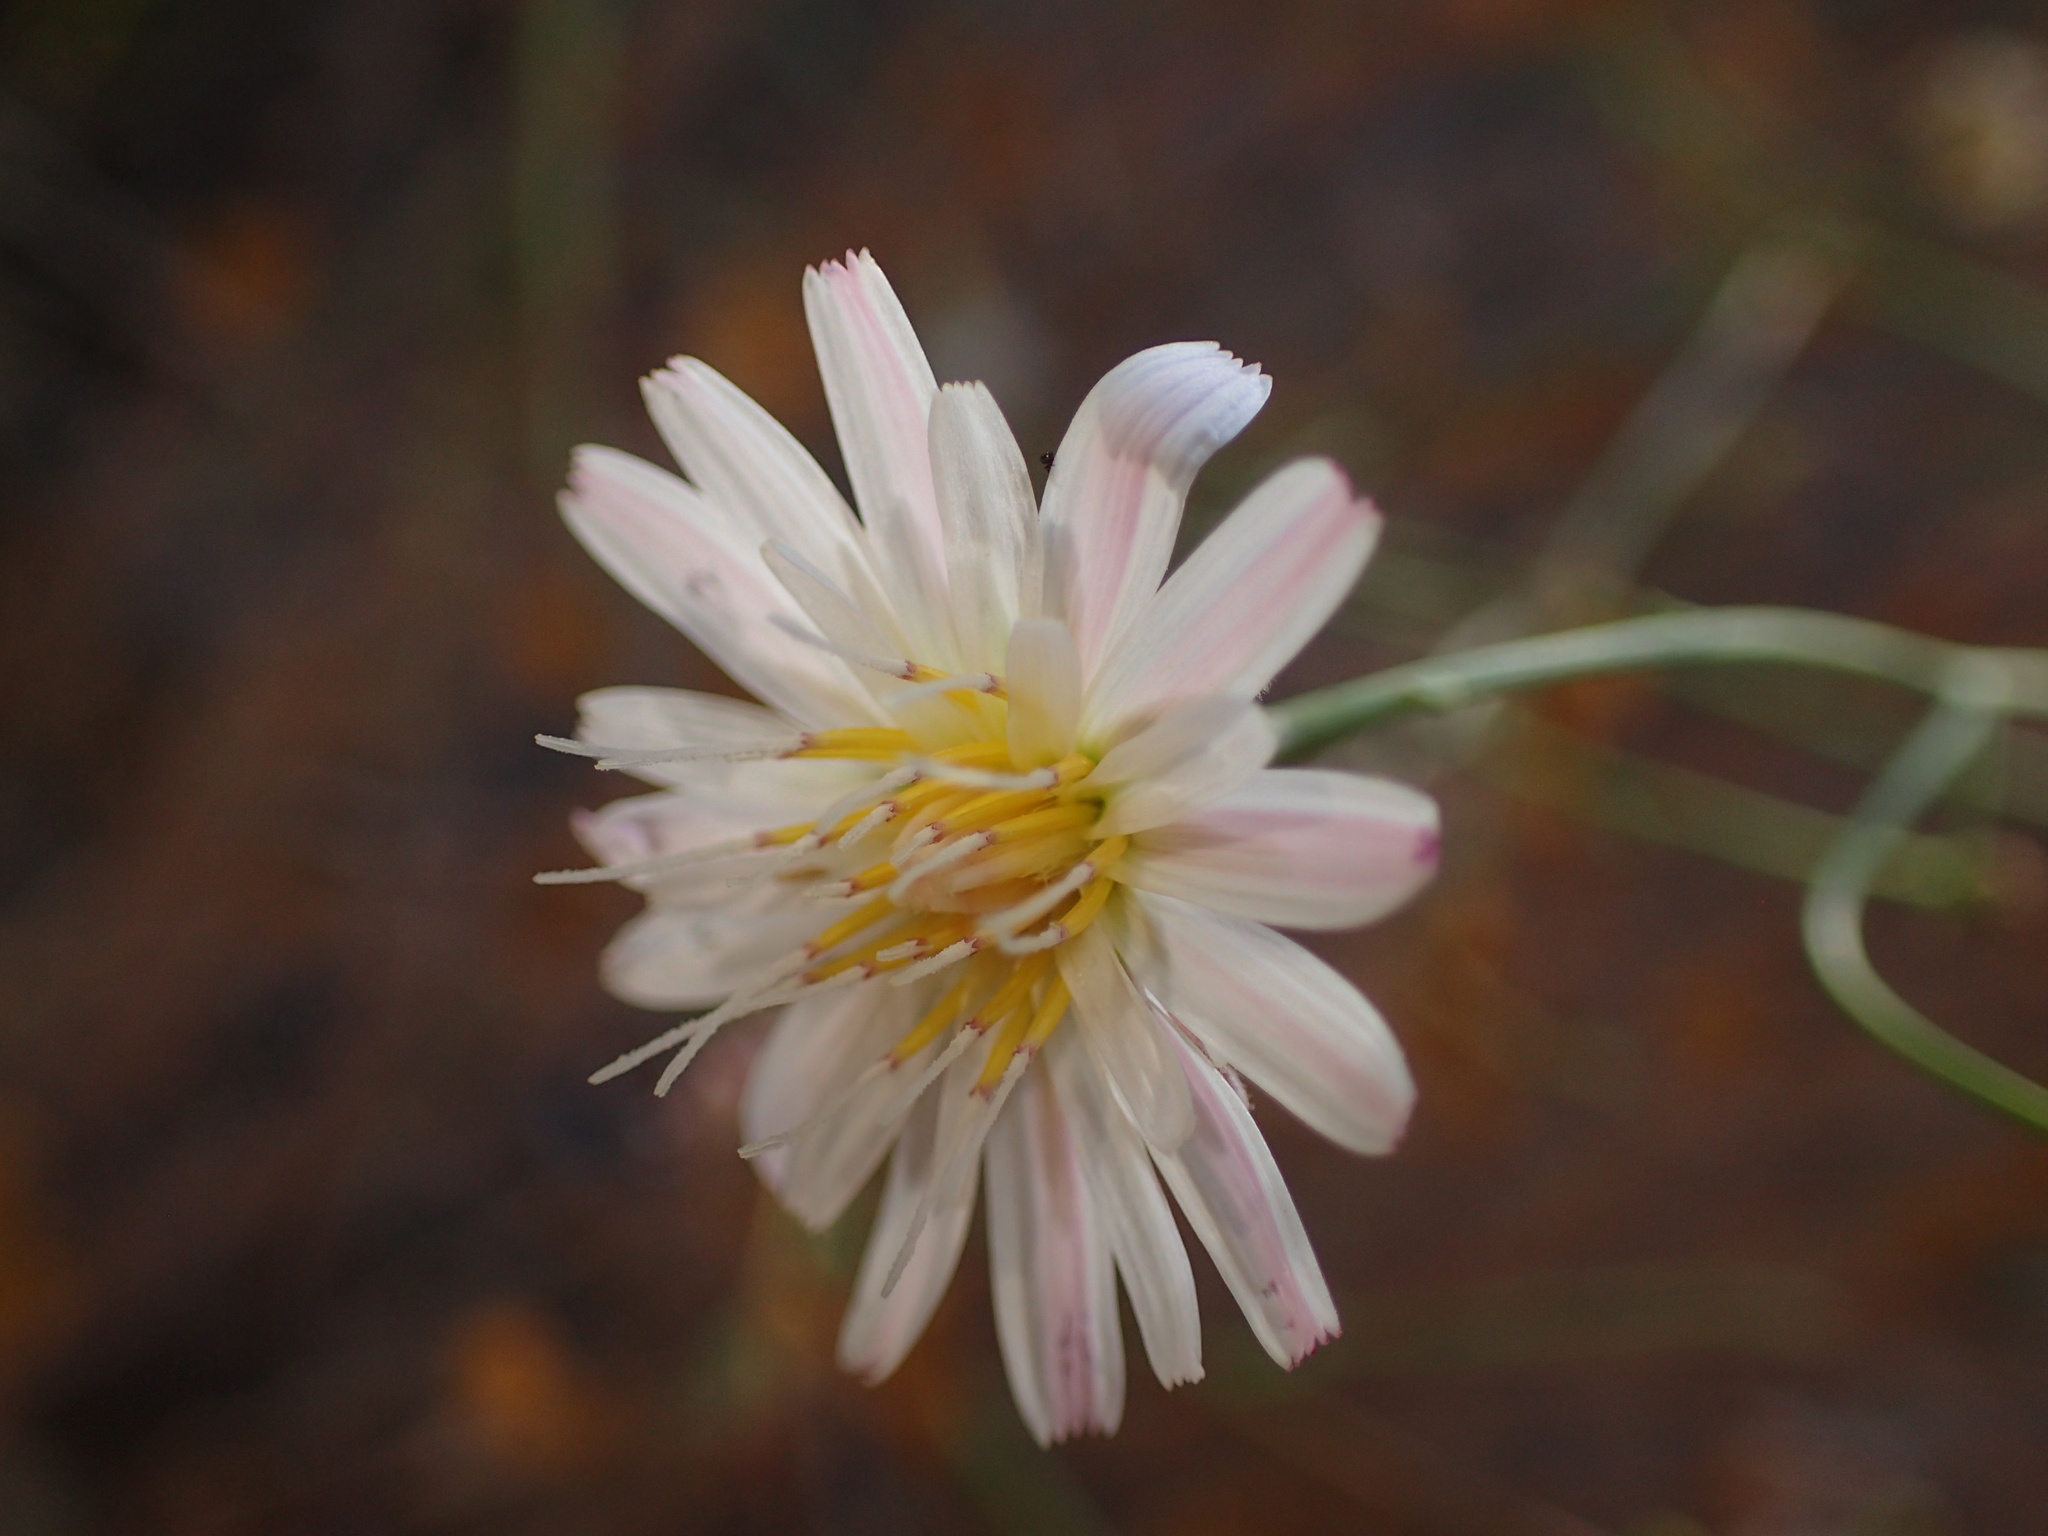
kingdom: Plantae
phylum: Tracheophyta
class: Magnoliopsida
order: Asterales
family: Asteraceae
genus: Malacothrix
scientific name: Malacothrix saxatilis
